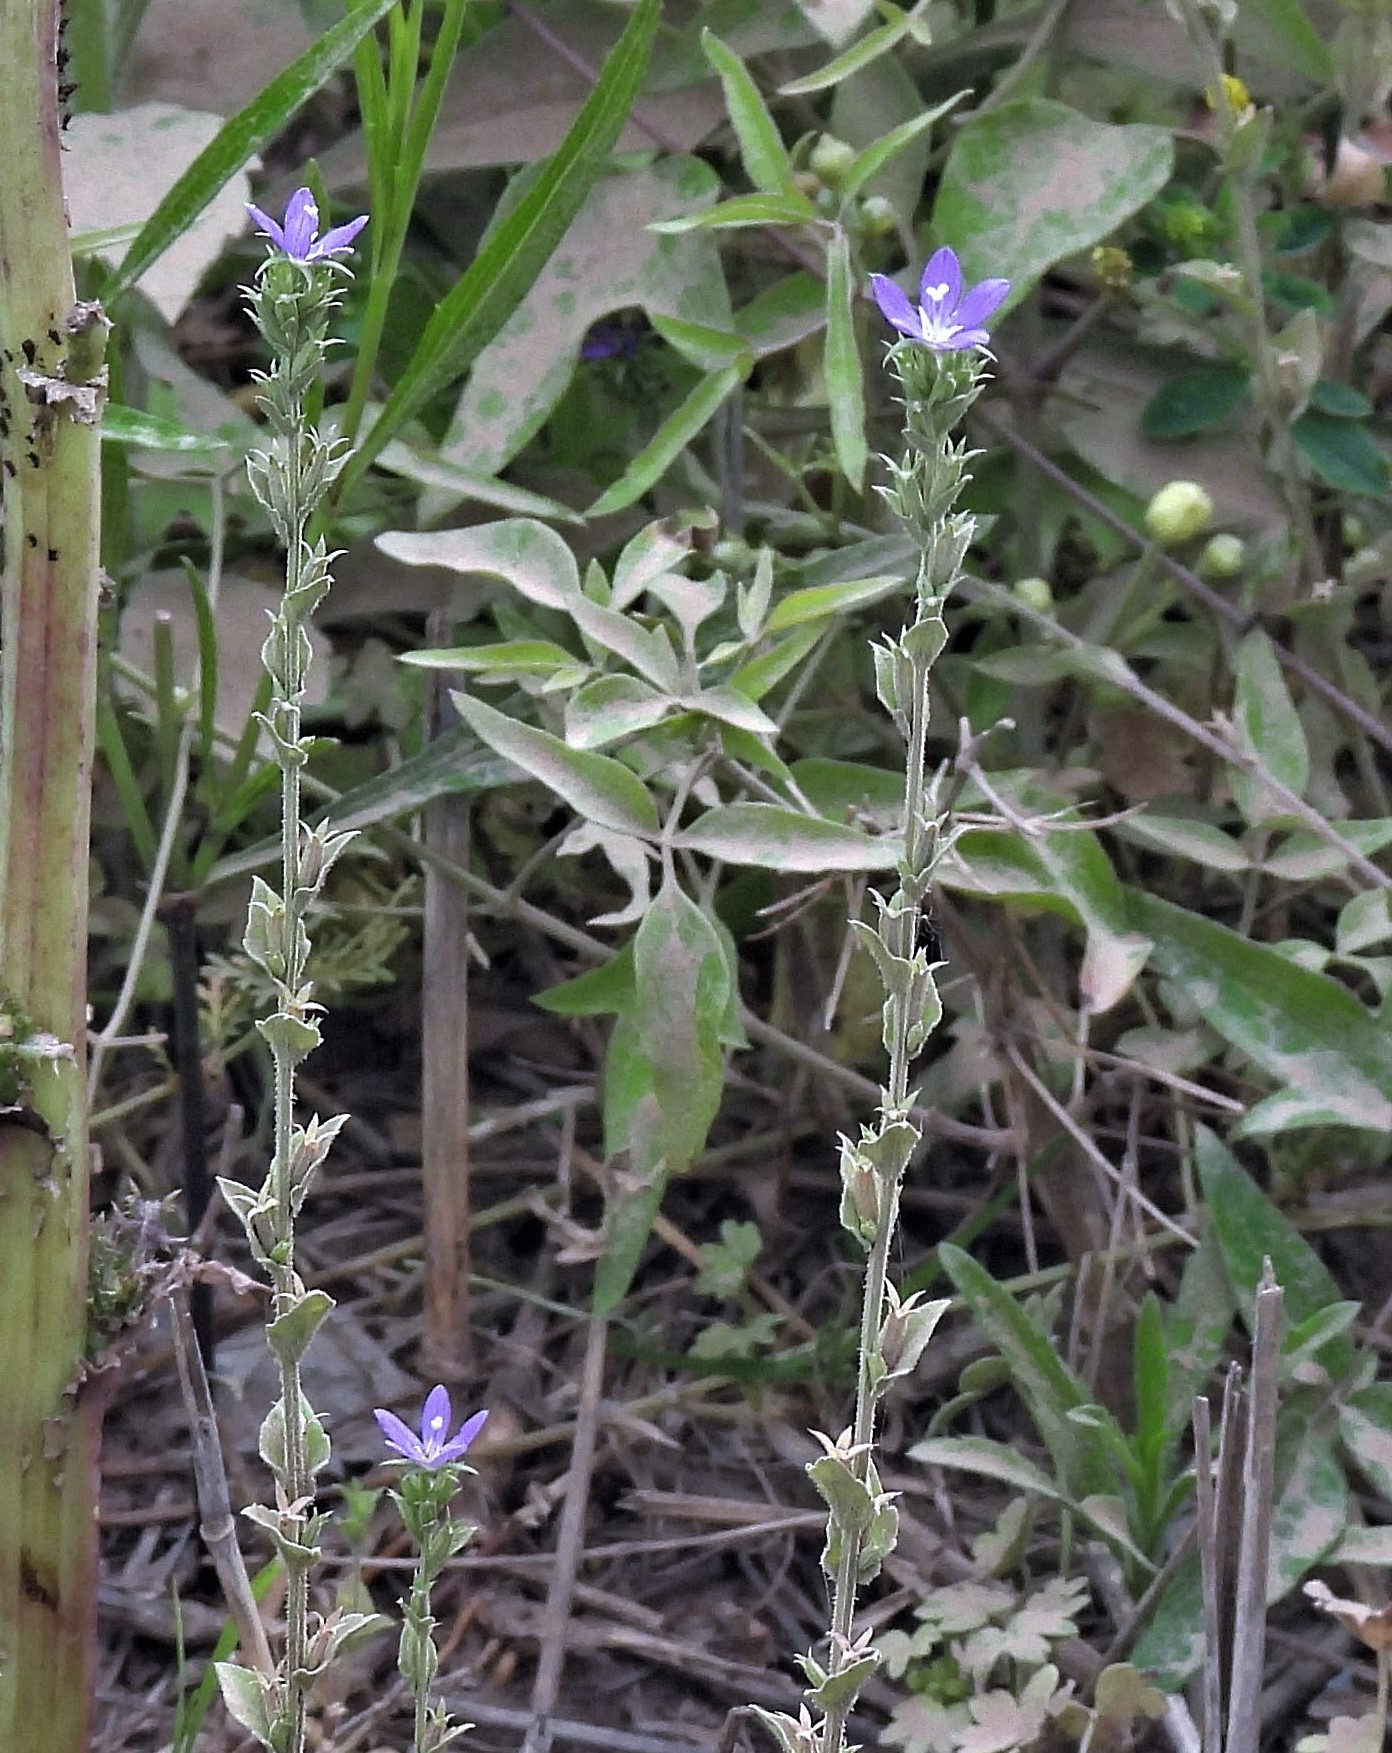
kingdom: Plantae
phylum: Tracheophyta
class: Magnoliopsida
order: Asterales
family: Campanulaceae
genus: Triodanis
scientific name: Triodanis biflora
